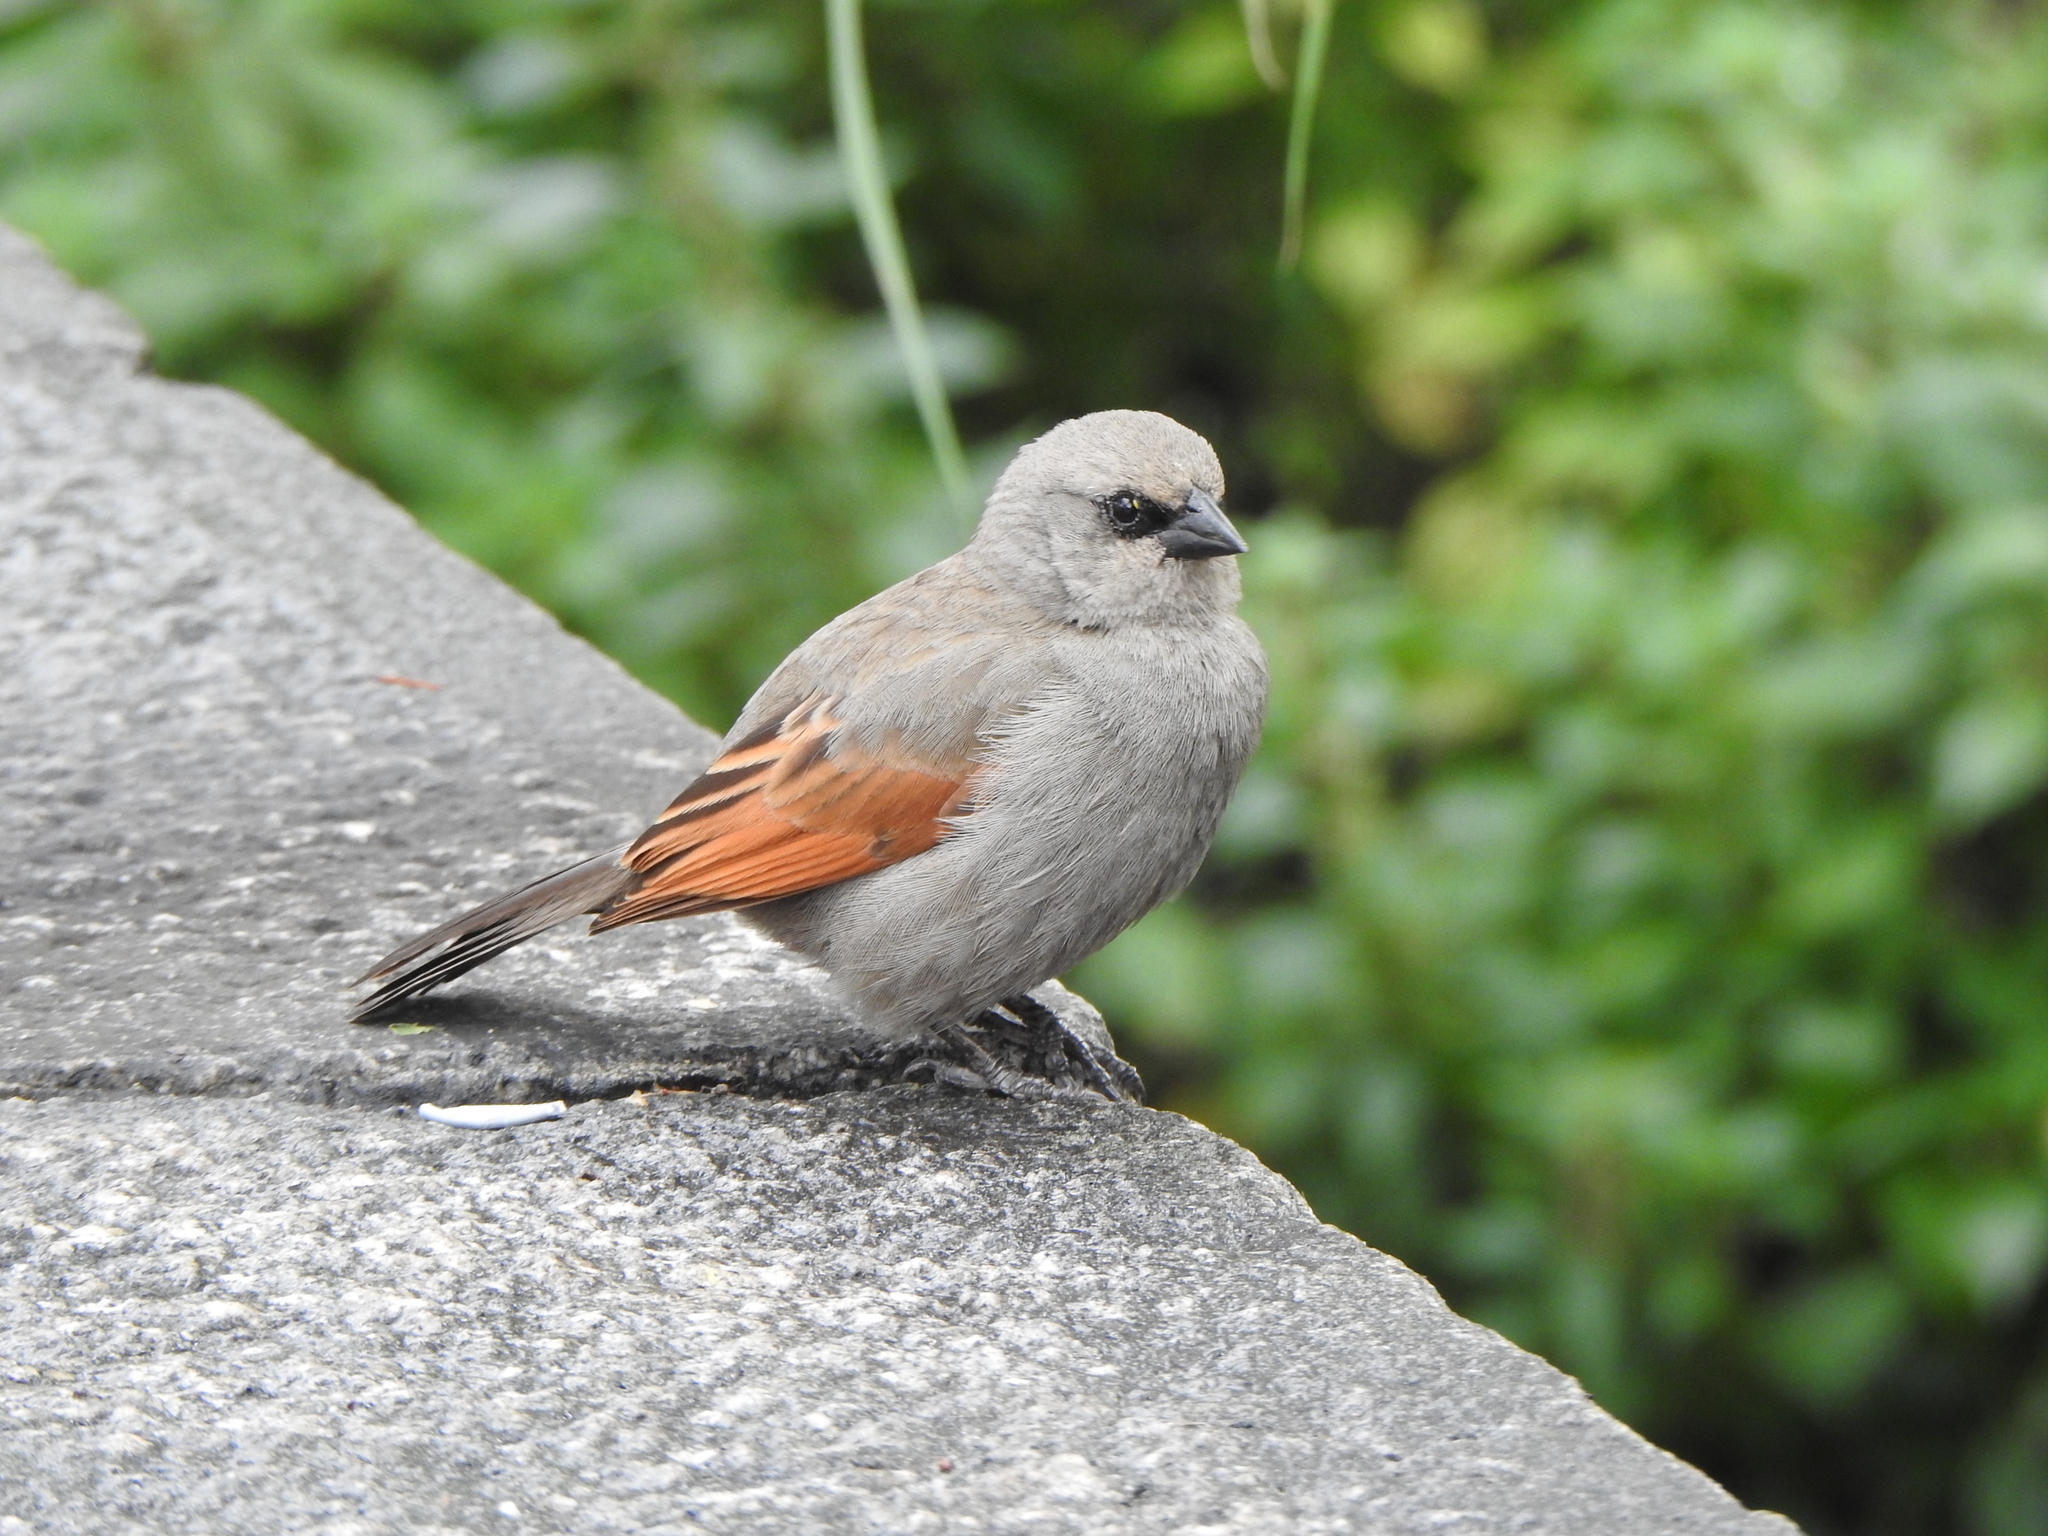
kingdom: Animalia
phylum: Chordata
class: Aves
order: Passeriformes
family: Icteridae
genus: Agelaioides
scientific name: Agelaioides badius
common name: Baywing
